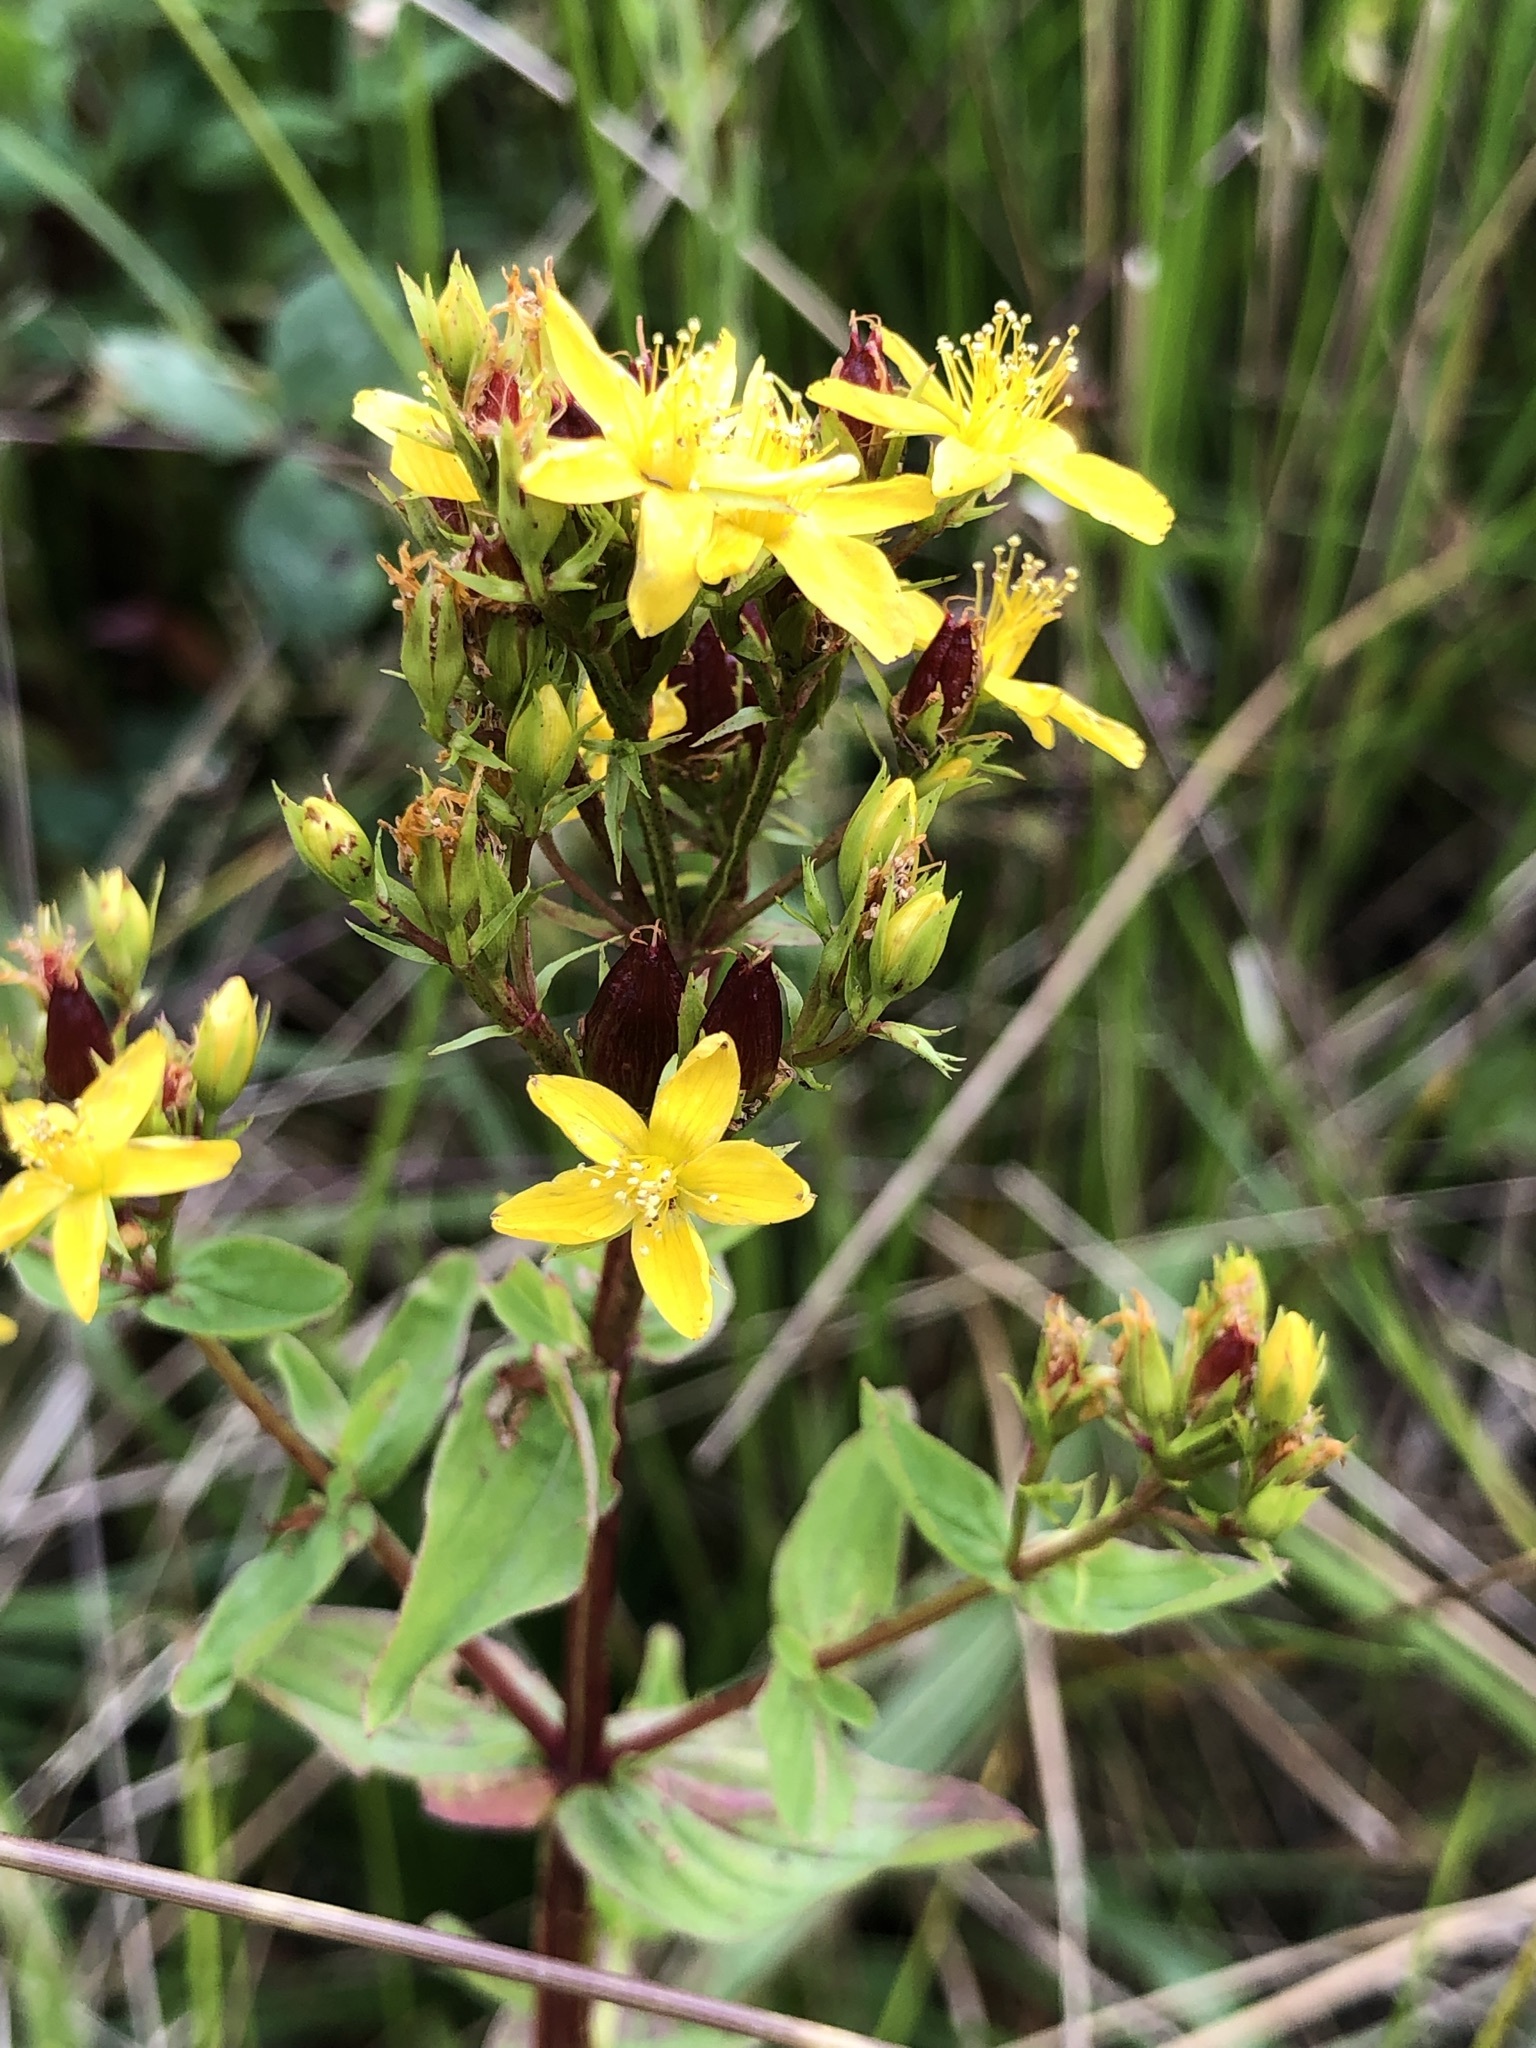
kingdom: Plantae
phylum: Tracheophyta
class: Magnoliopsida
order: Malpighiales
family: Hypericaceae
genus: Hypericum
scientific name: Hypericum tetrapterum
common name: Square-stalked st. john's-wort
